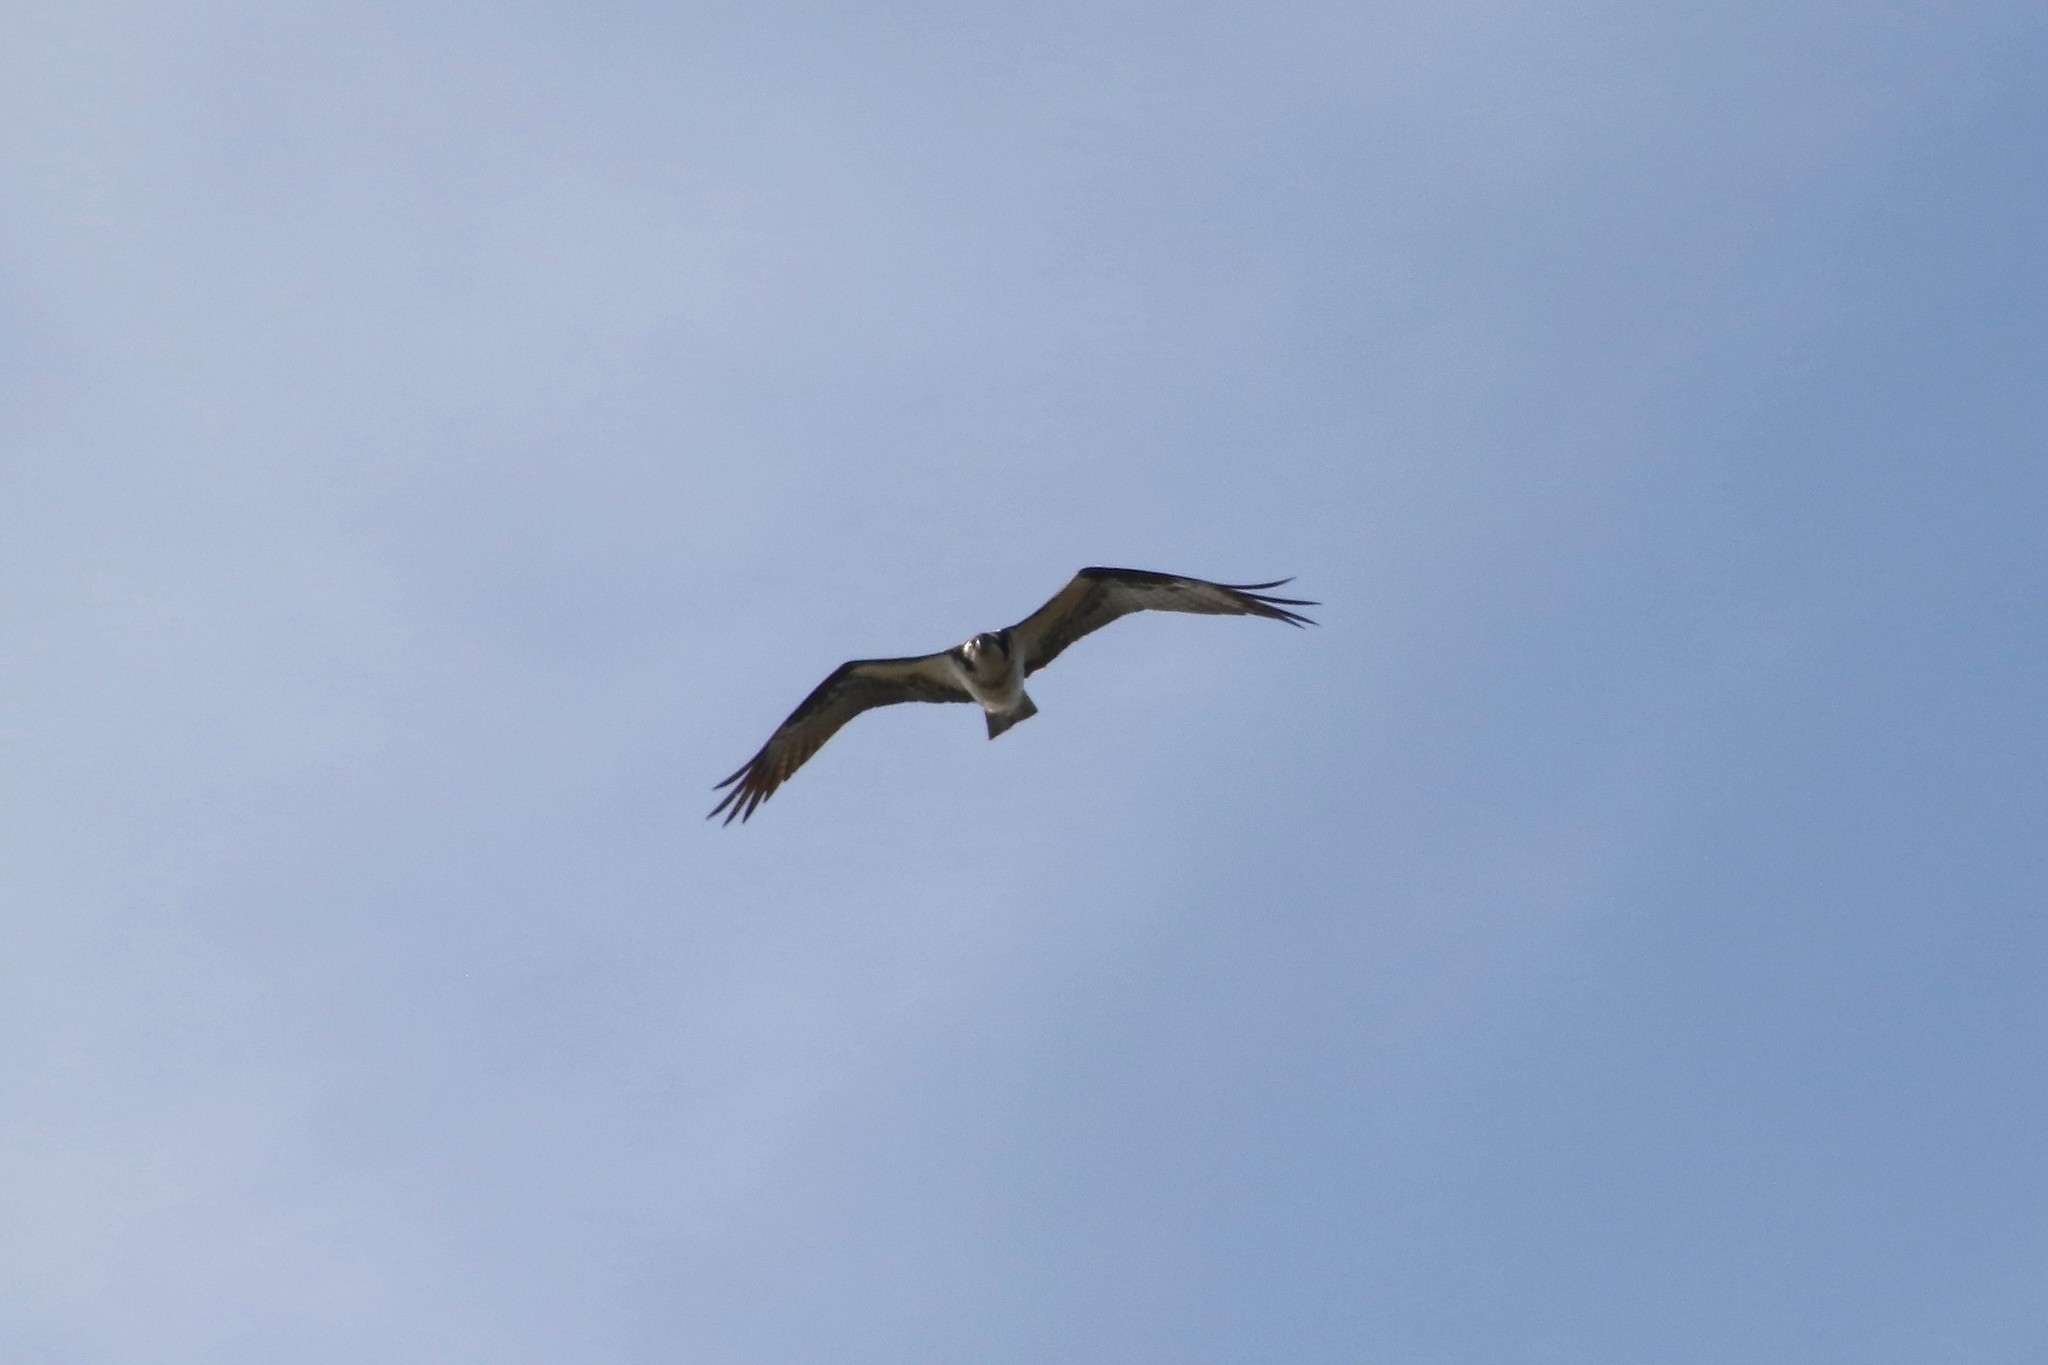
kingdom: Animalia
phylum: Chordata
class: Aves
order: Accipitriformes
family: Pandionidae
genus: Pandion
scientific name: Pandion haliaetus
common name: Osprey
